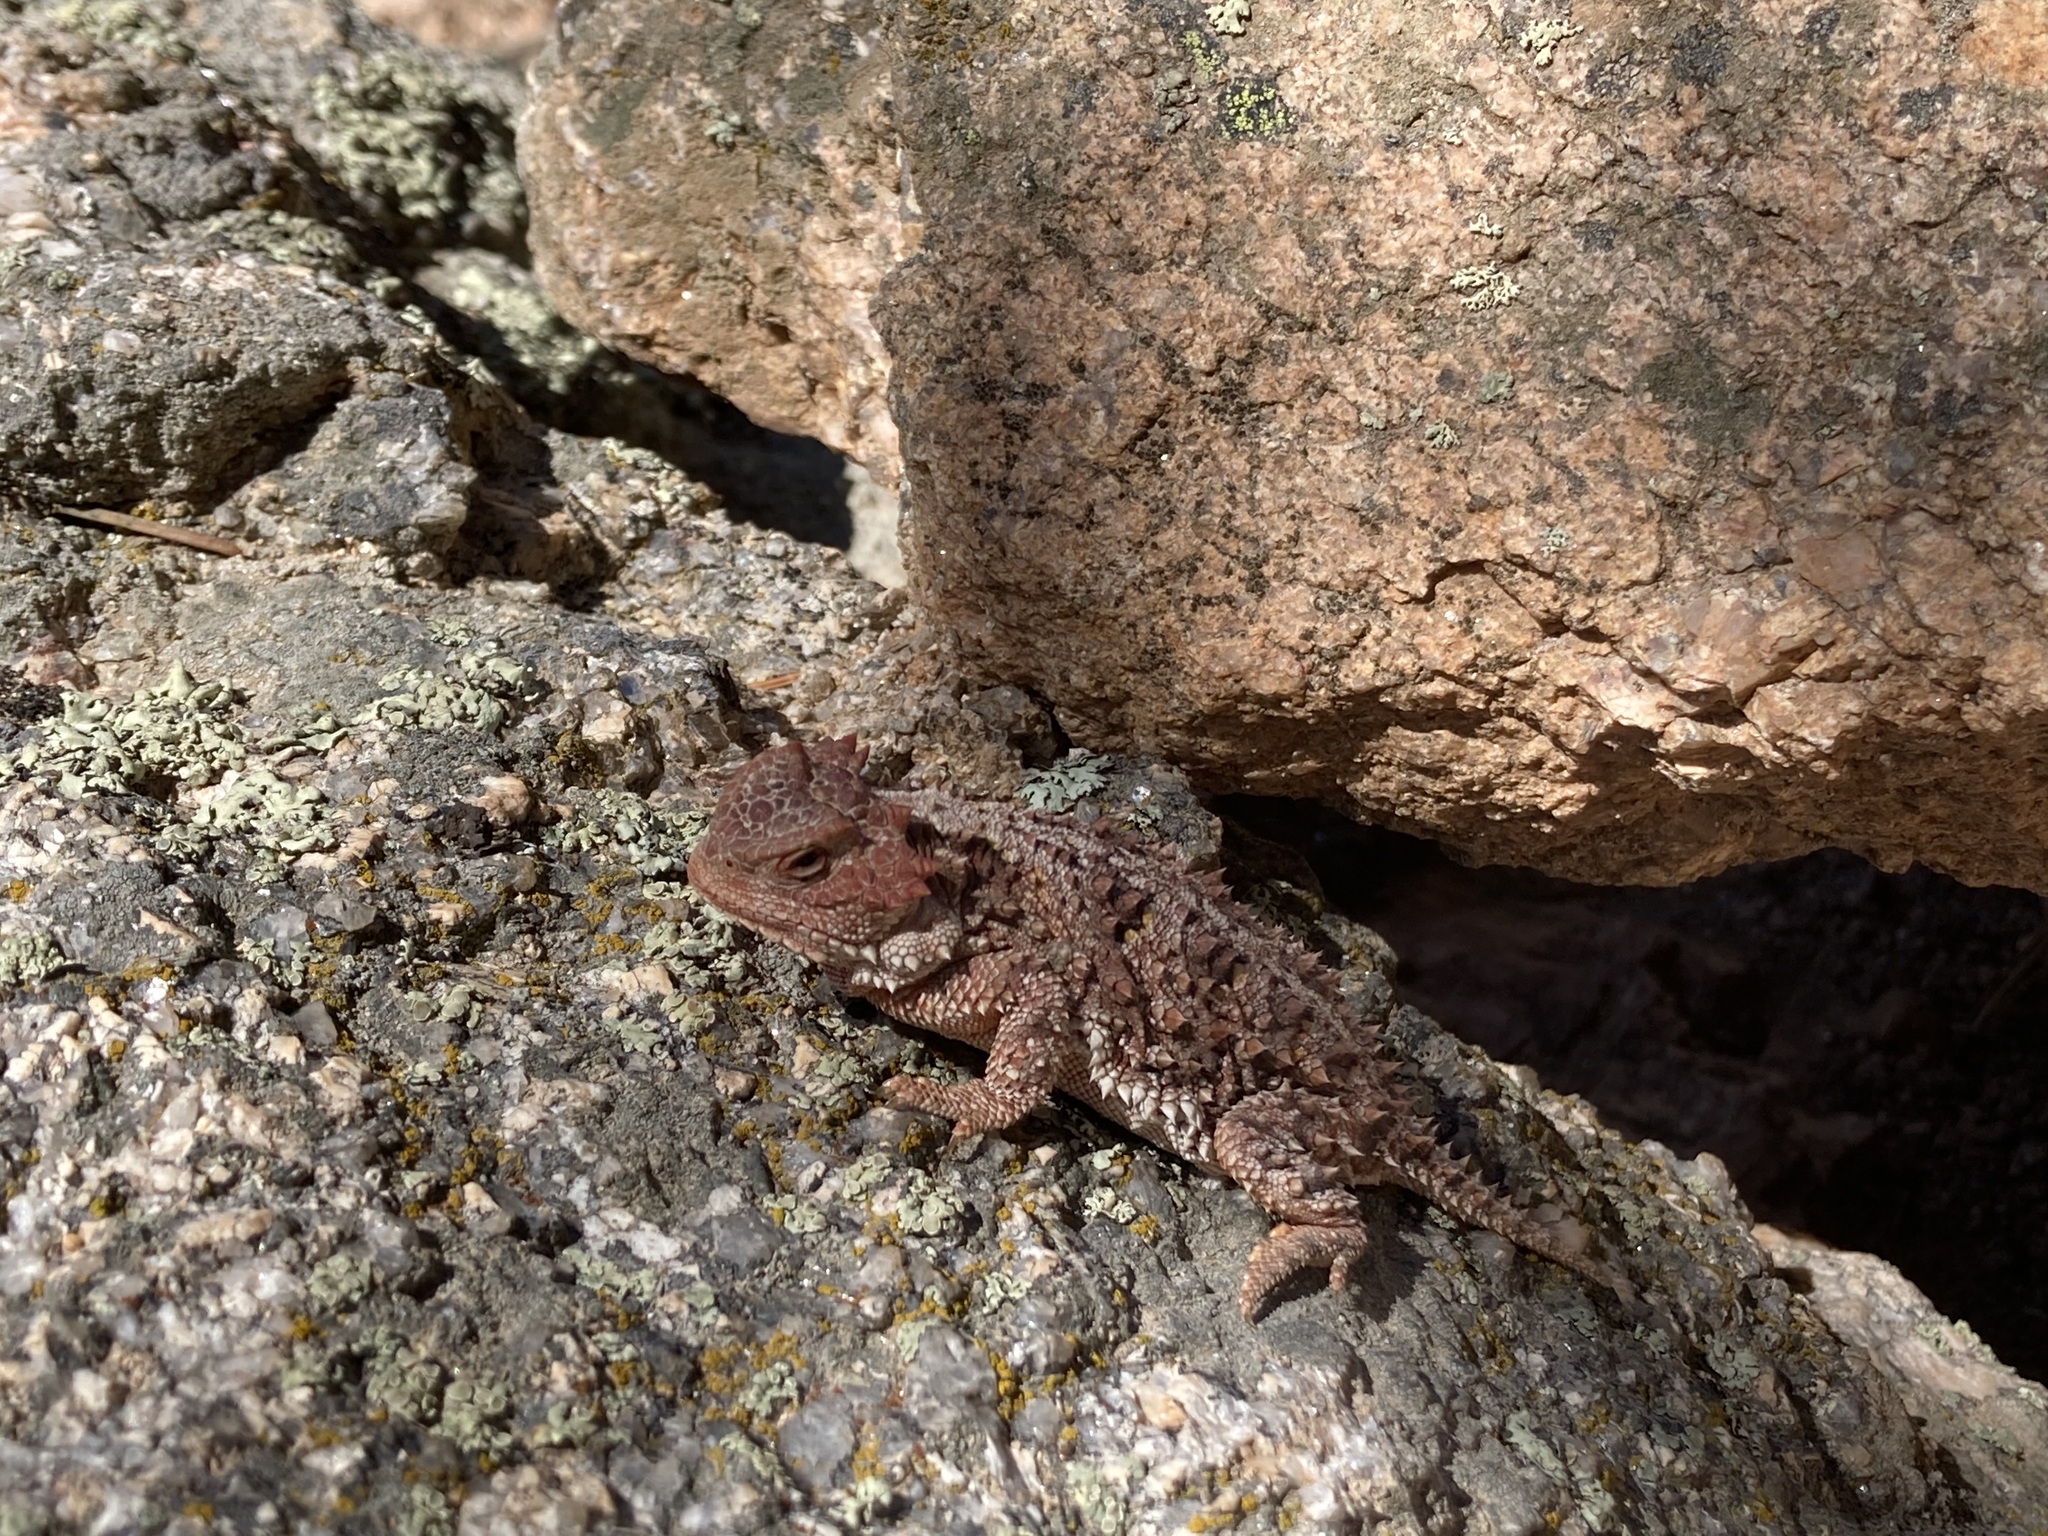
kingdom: Animalia
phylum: Chordata
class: Squamata
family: Phrynosomatidae
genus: Phrynosoma
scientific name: Phrynosoma hernandesi
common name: Greater short-horned lizard
